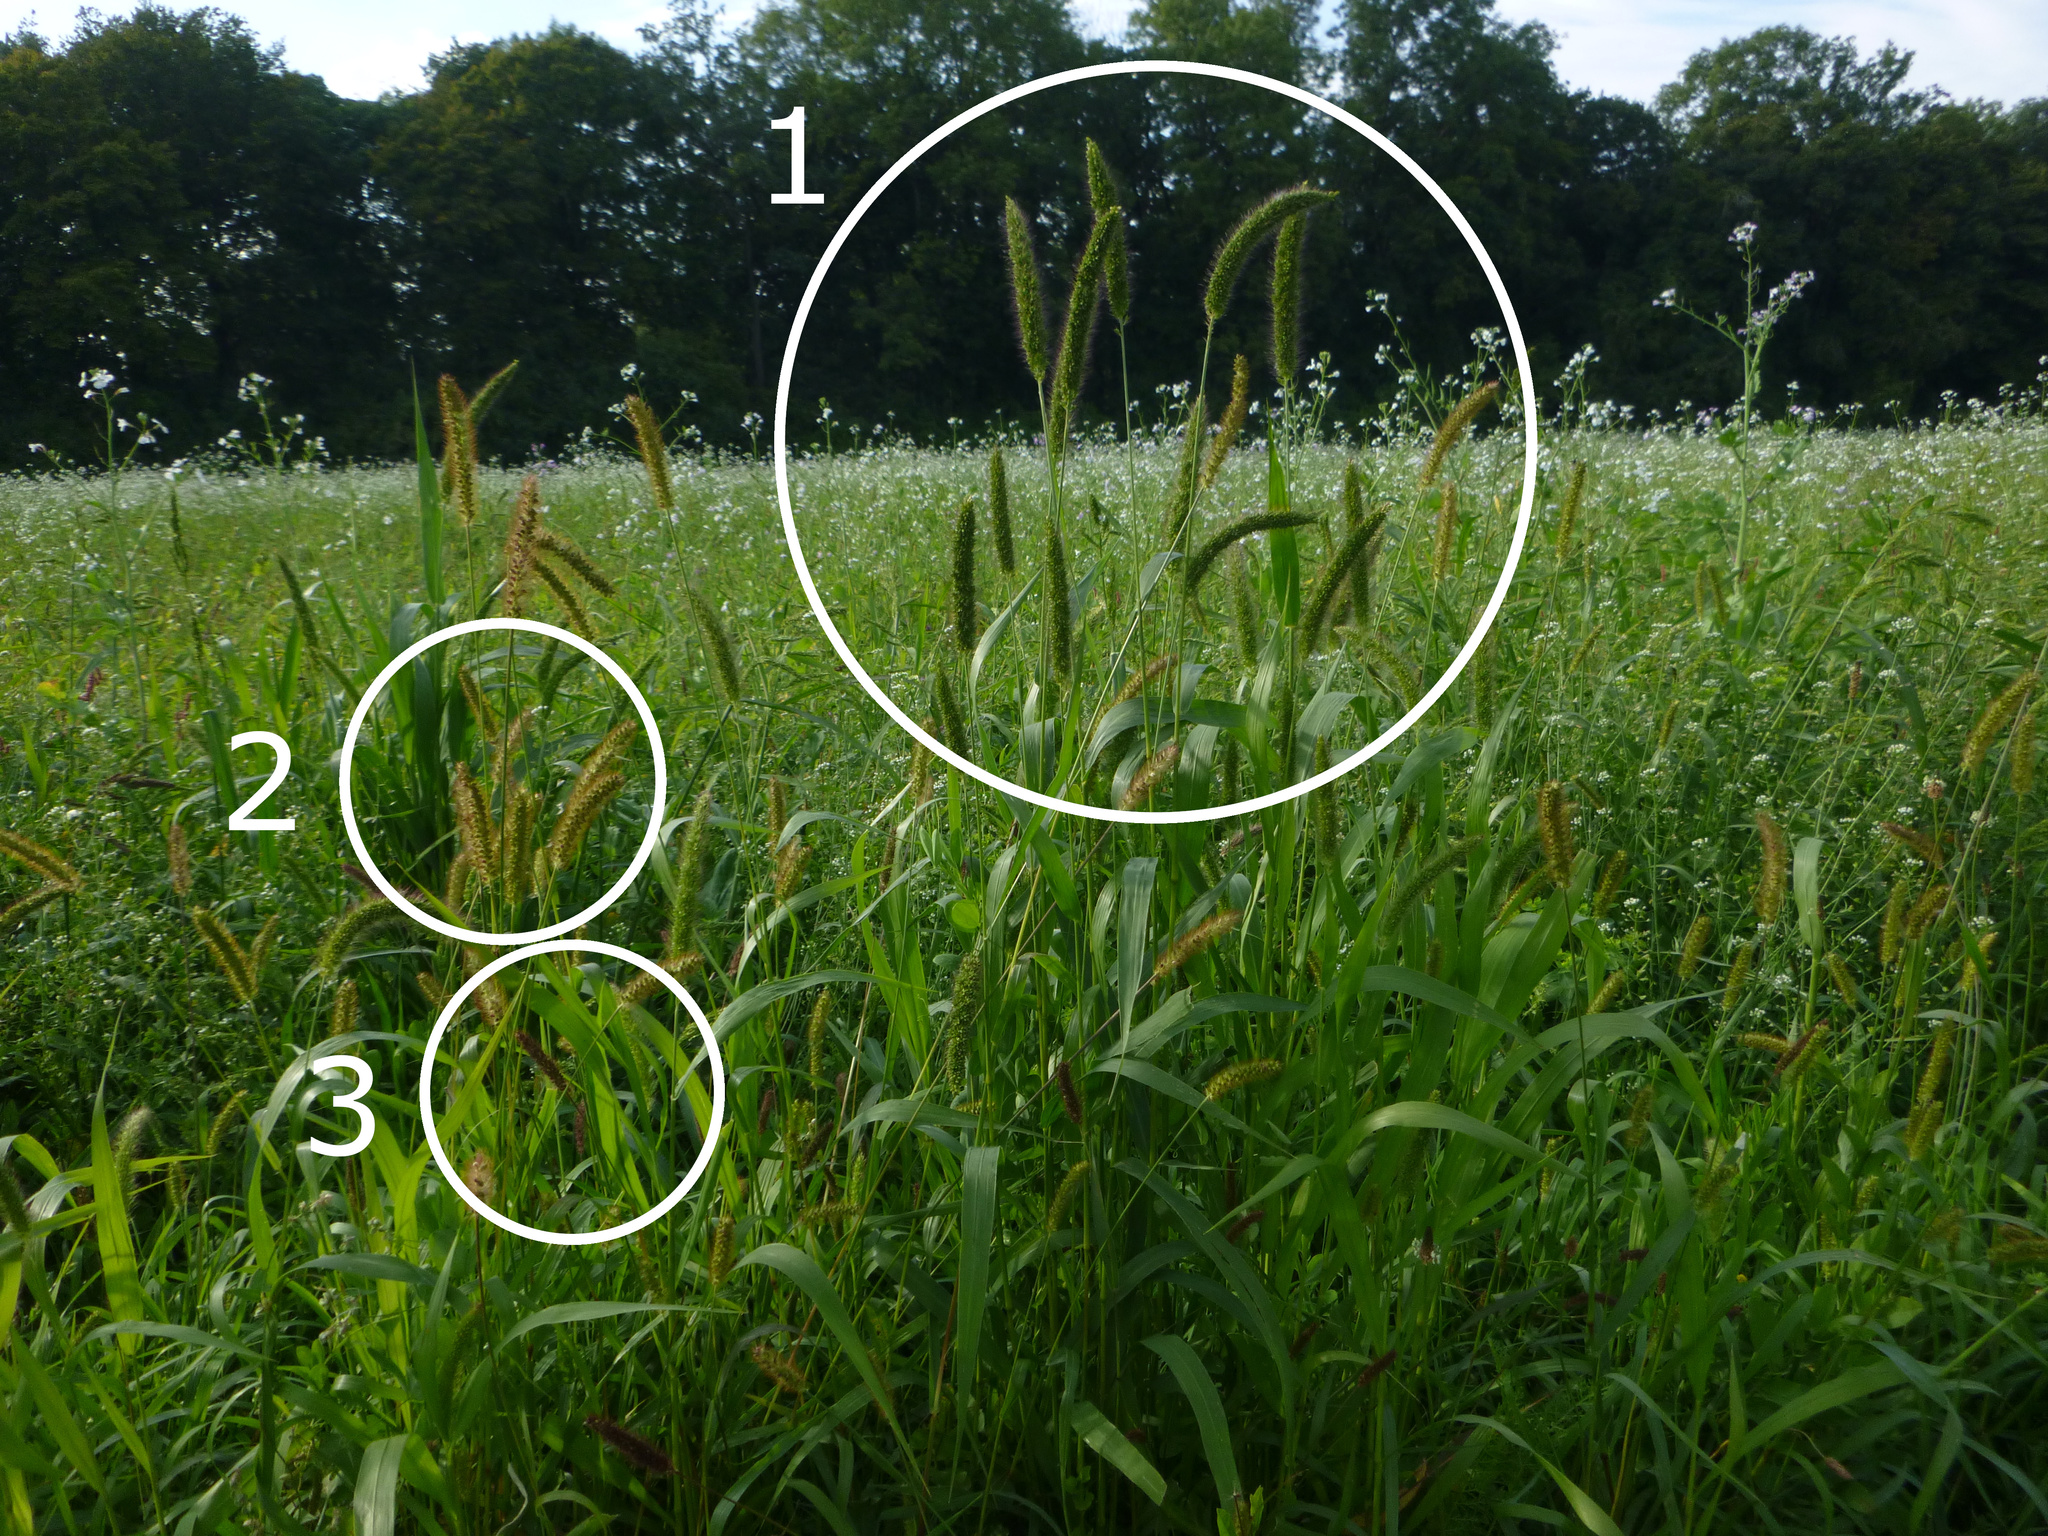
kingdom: Plantae
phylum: Tracheophyta
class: Liliopsida
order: Poales
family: Poaceae
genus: Setaria
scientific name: Setaria faberi
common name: Nodding bristle-grass
